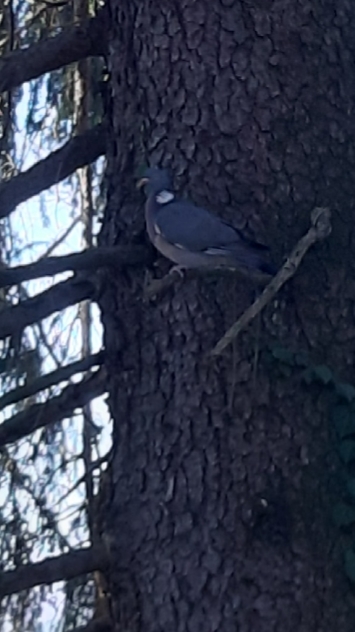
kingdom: Animalia
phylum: Chordata
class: Aves
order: Columbiformes
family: Columbidae
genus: Columba
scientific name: Columba palumbus
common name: Common wood pigeon
